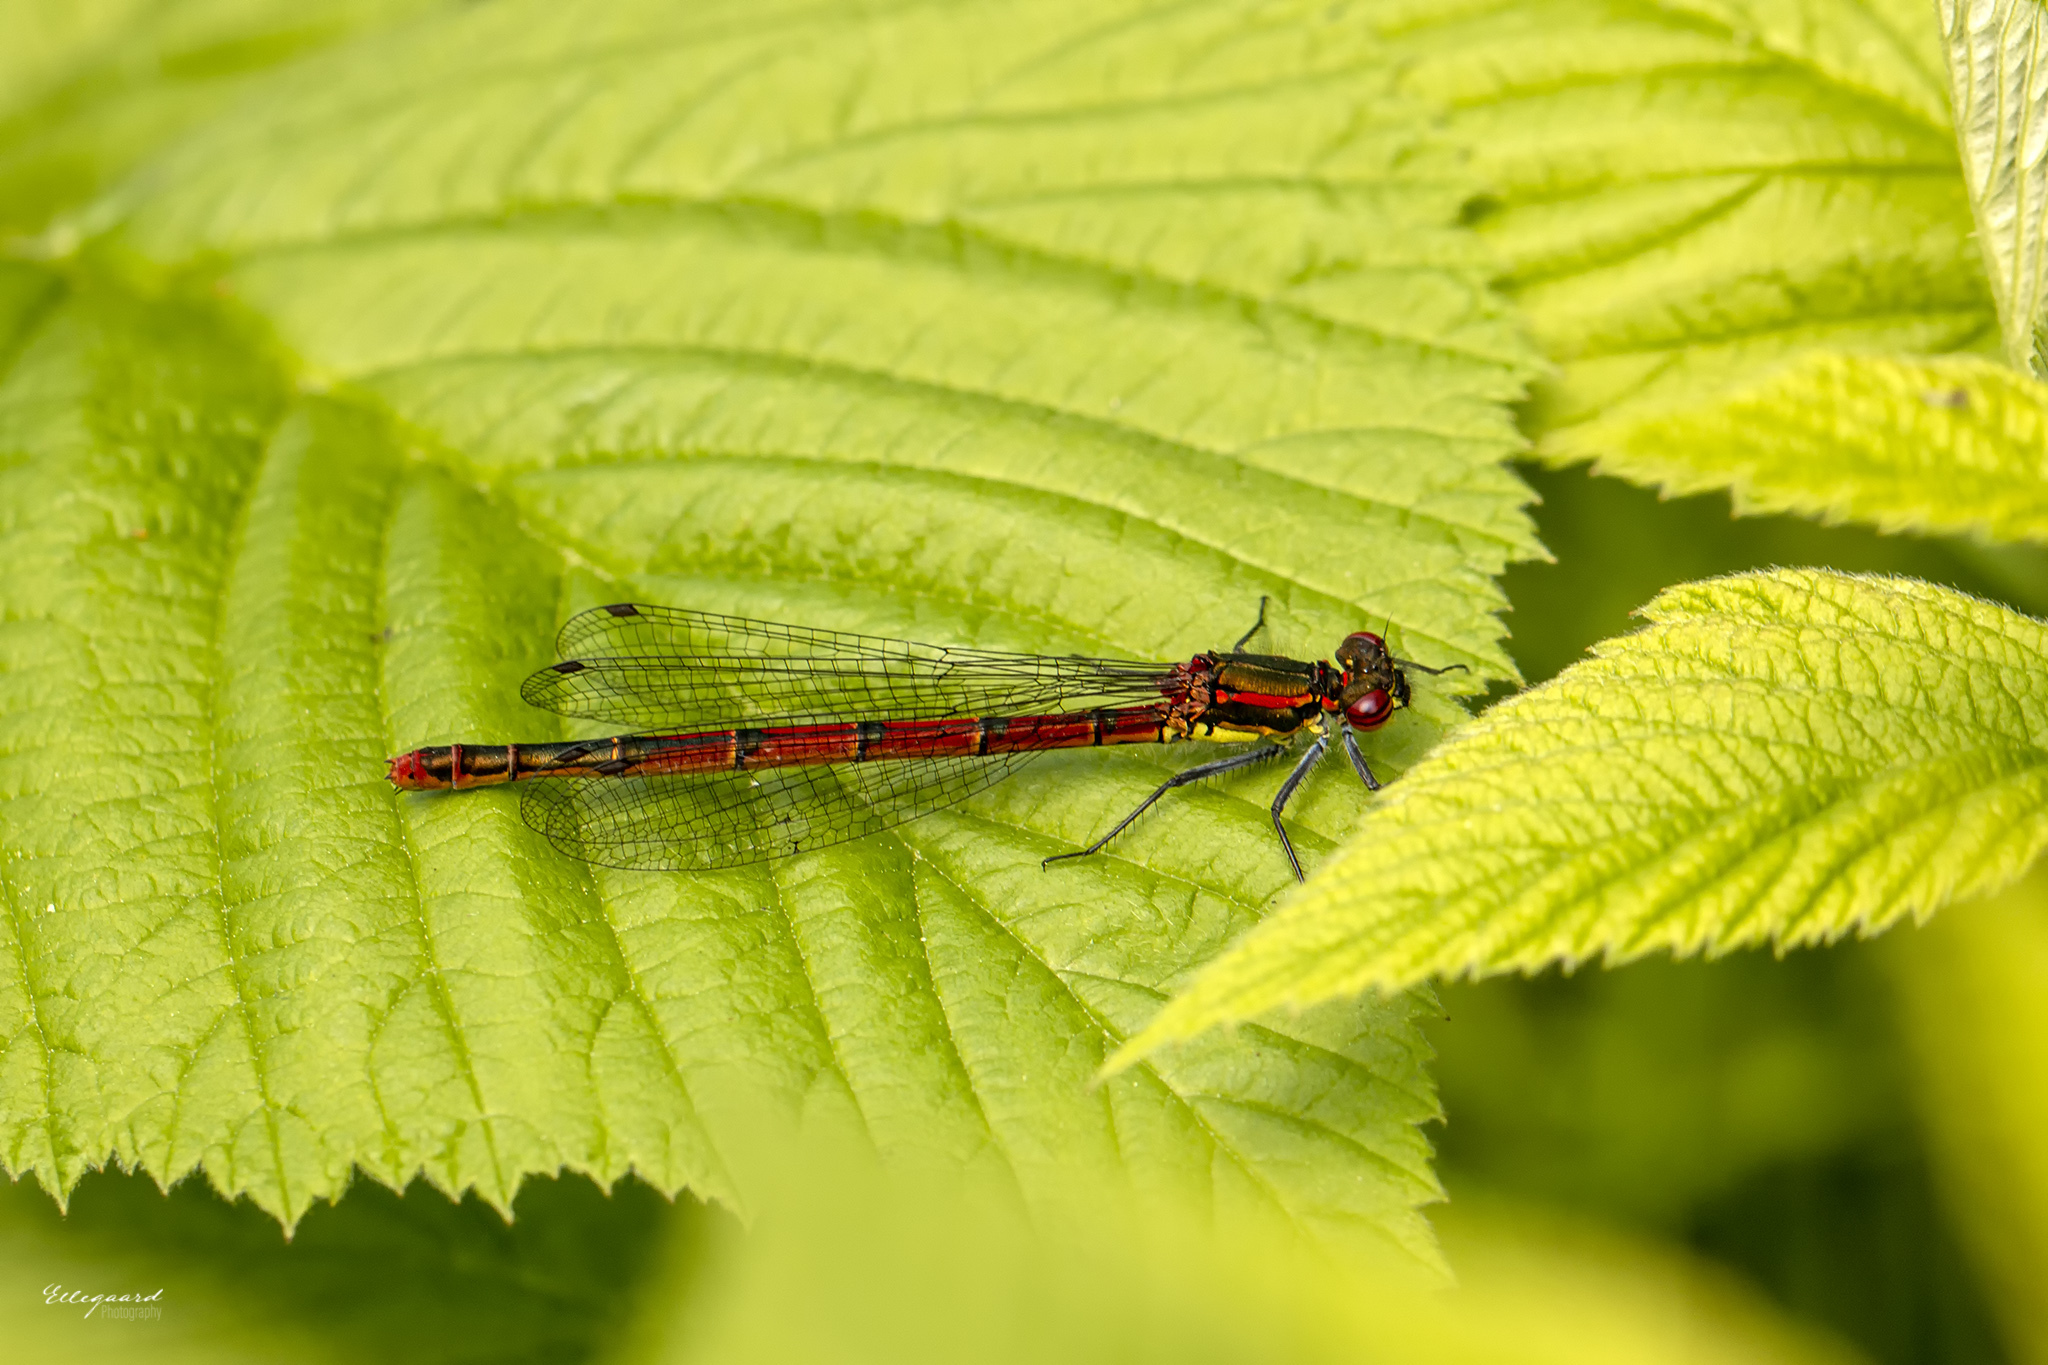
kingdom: Animalia
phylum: Arthropoda
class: Insecta
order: Odonata
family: Coenagrionidae
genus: Pyrrhosoma
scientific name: Pyrrhosoma nymphula
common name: Large red damsel
